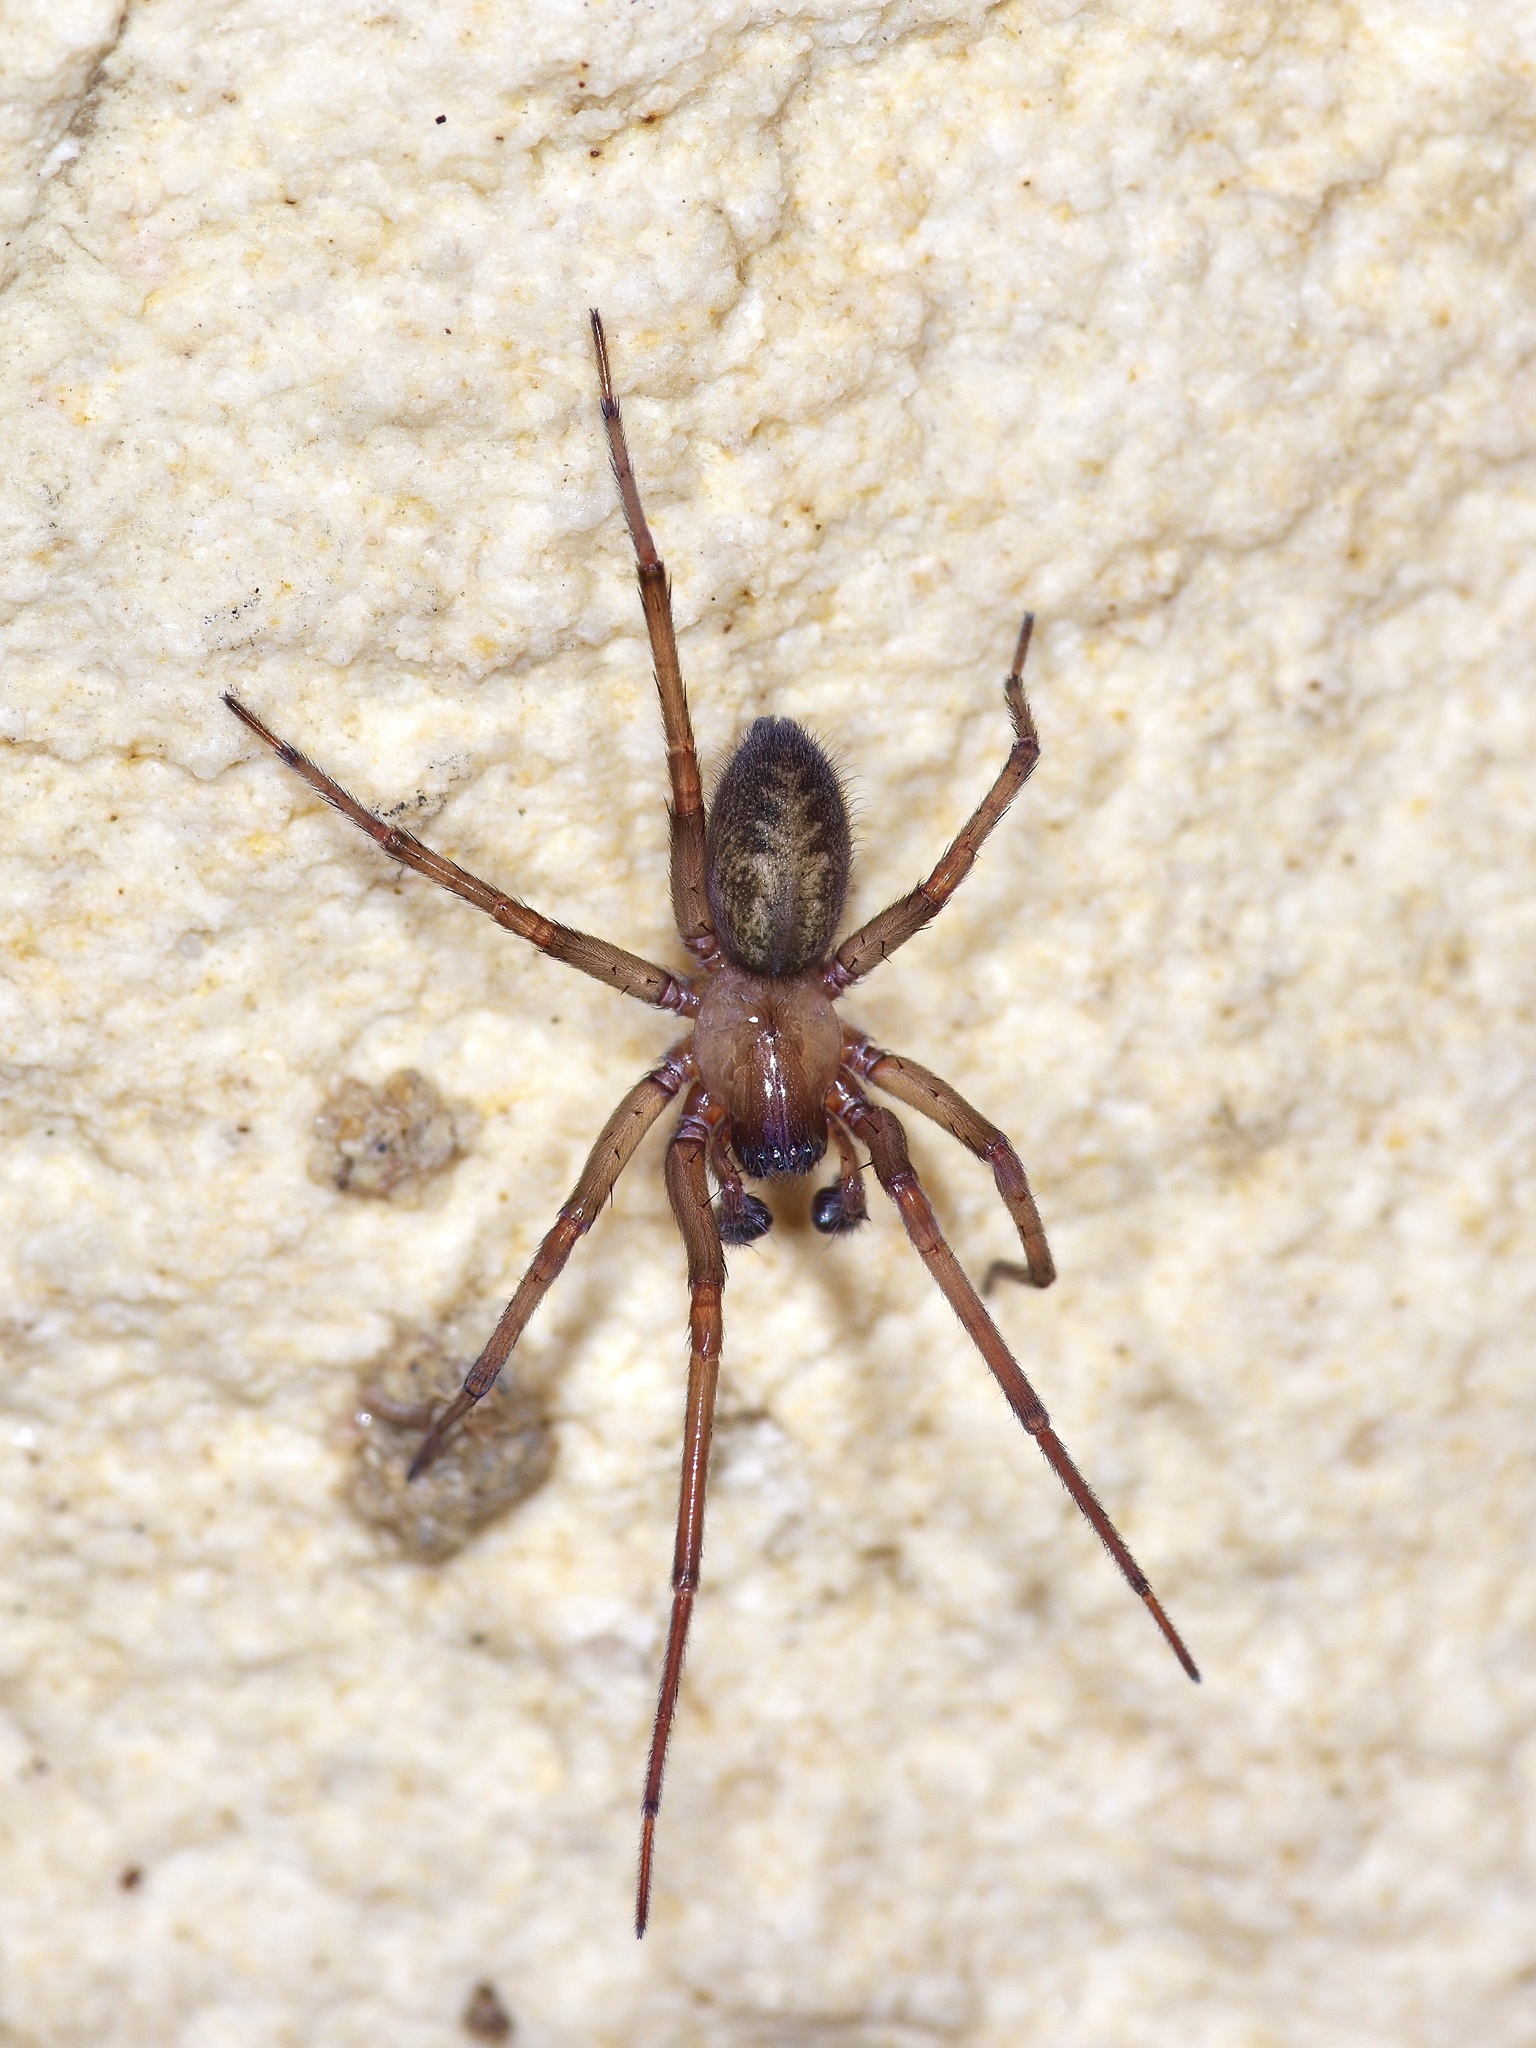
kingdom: Animalia
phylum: Arthropoda
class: Arachnida
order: Araneae
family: Desidae
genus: Metaltella
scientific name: Metaltella simoni
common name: Cribellate spider
